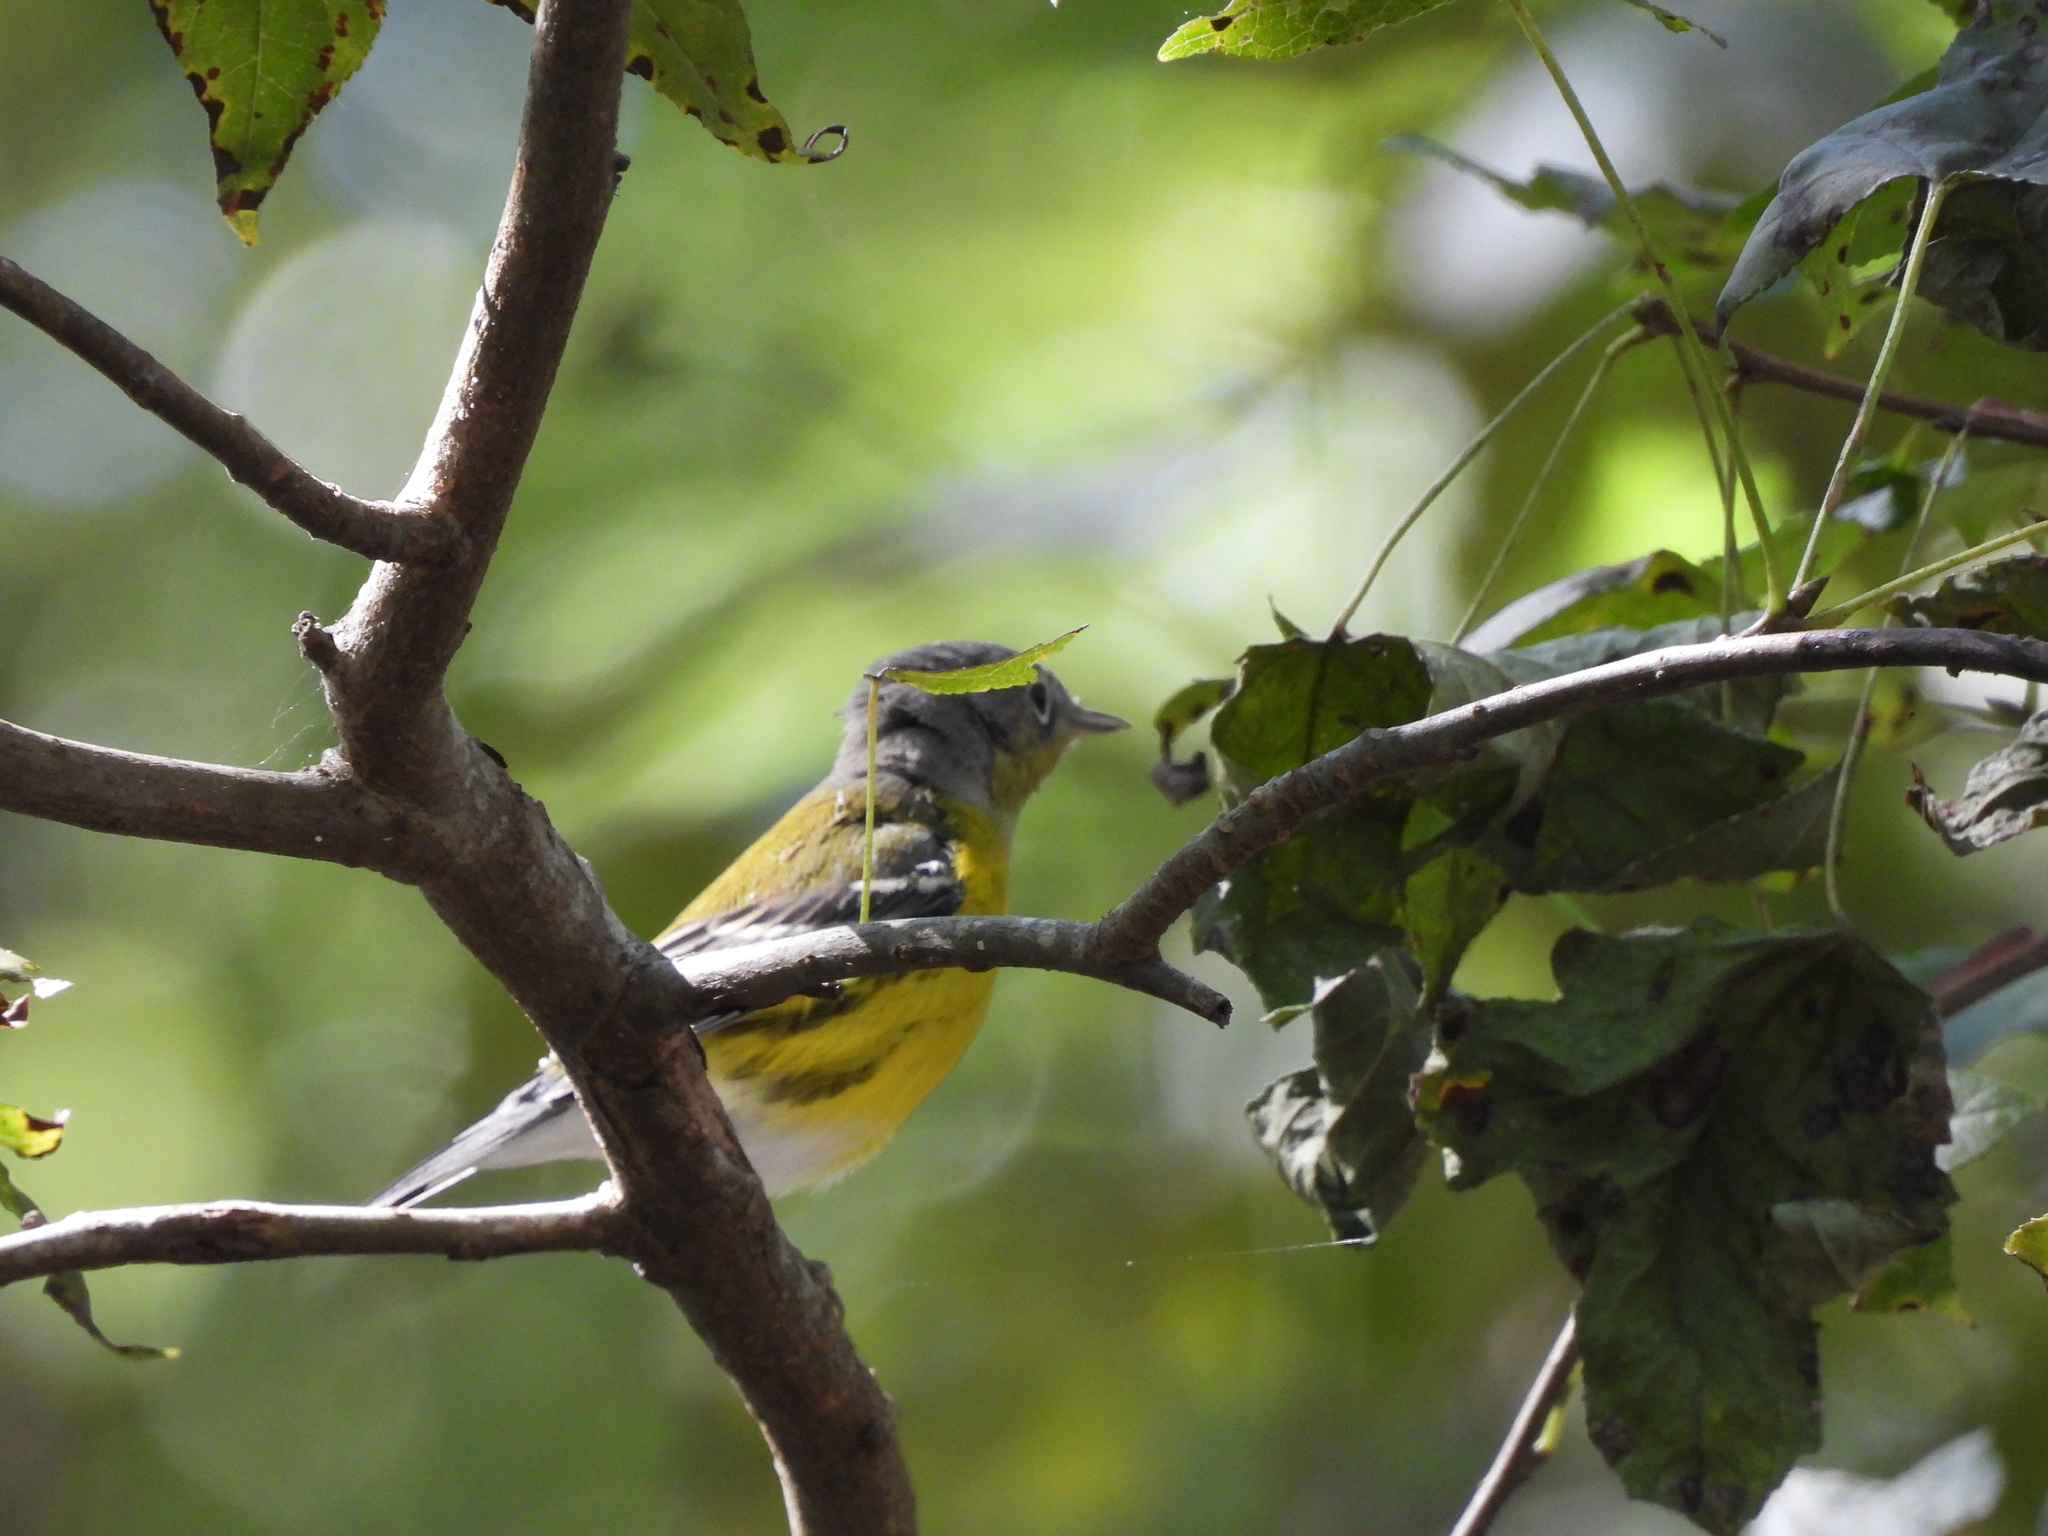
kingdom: Animalia
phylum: Chordata
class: Aves
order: Passeriformes
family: Parulidae
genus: Setophaga
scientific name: Setophaga magnolia
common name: Magnolia warbler
